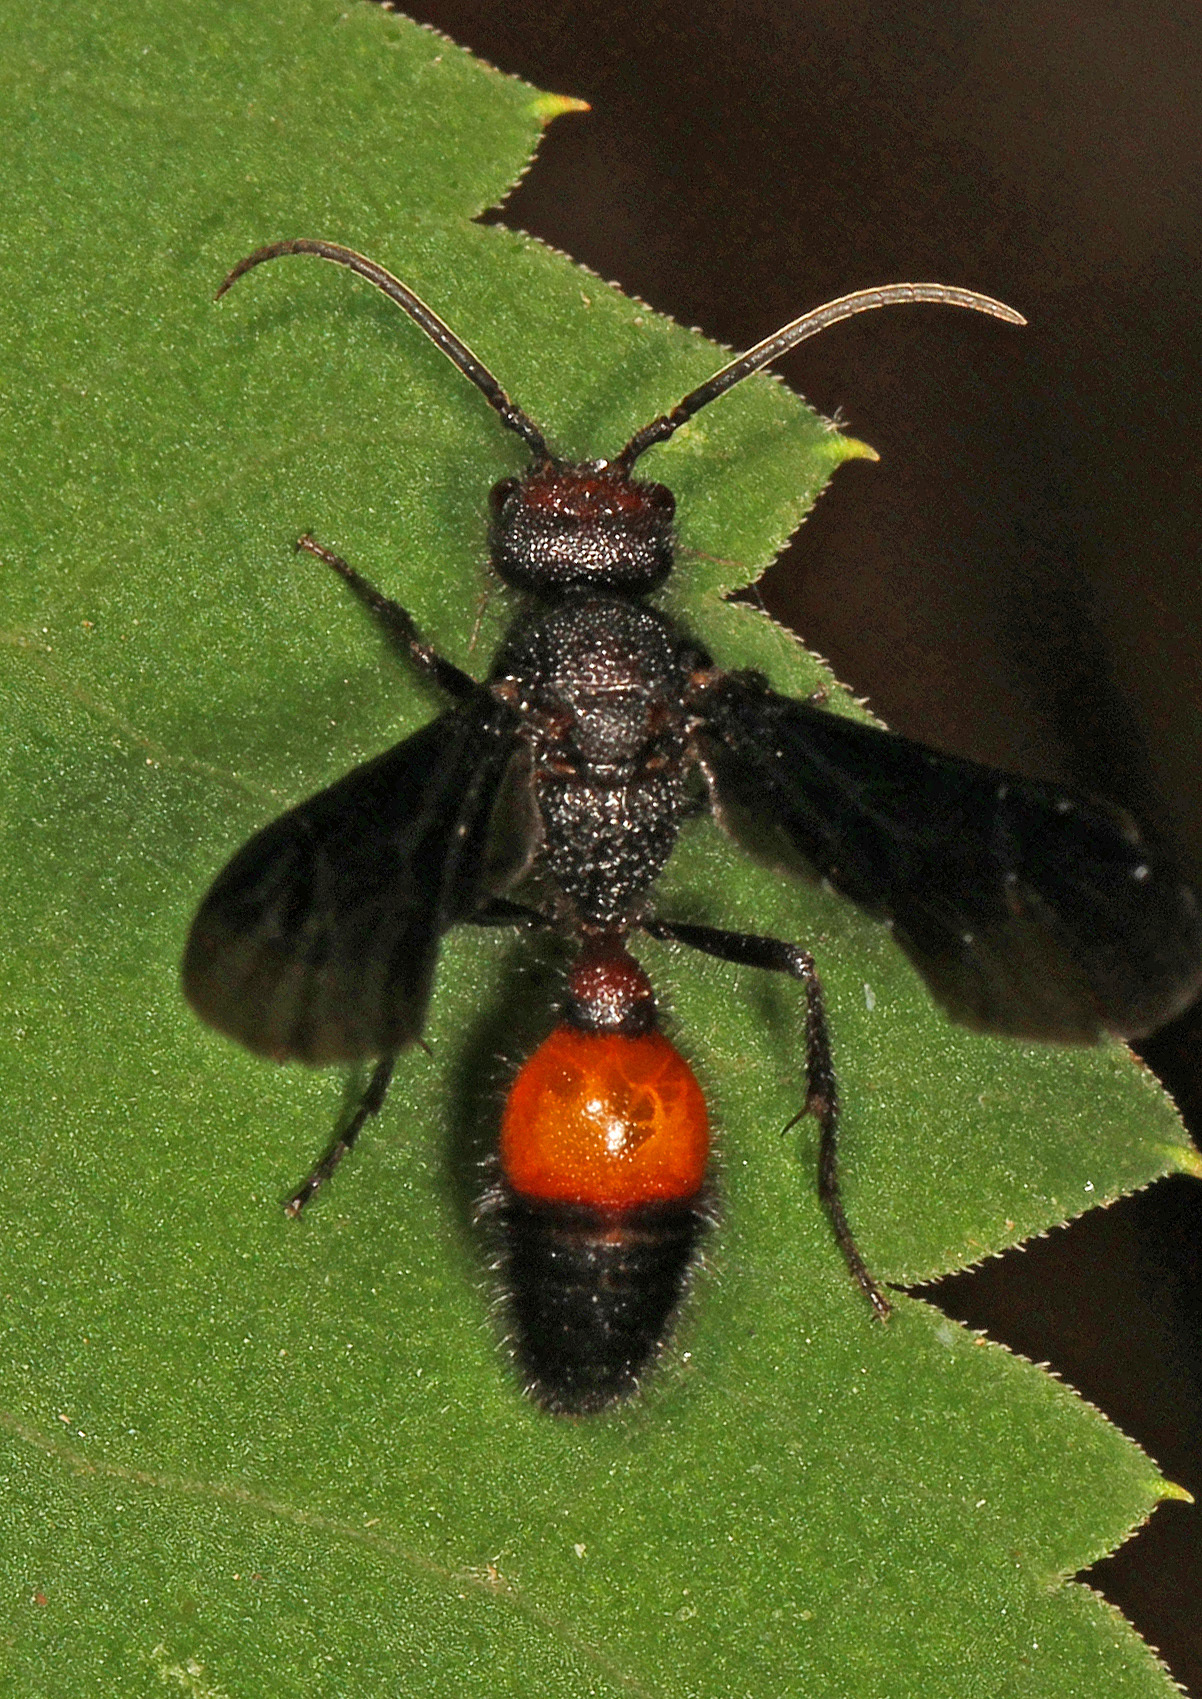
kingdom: Animalia
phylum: Arthropoda
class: Insecta
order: Hymenoptera
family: Mutillidae
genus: Sphaeropthalma
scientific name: Sphaeropthalma
